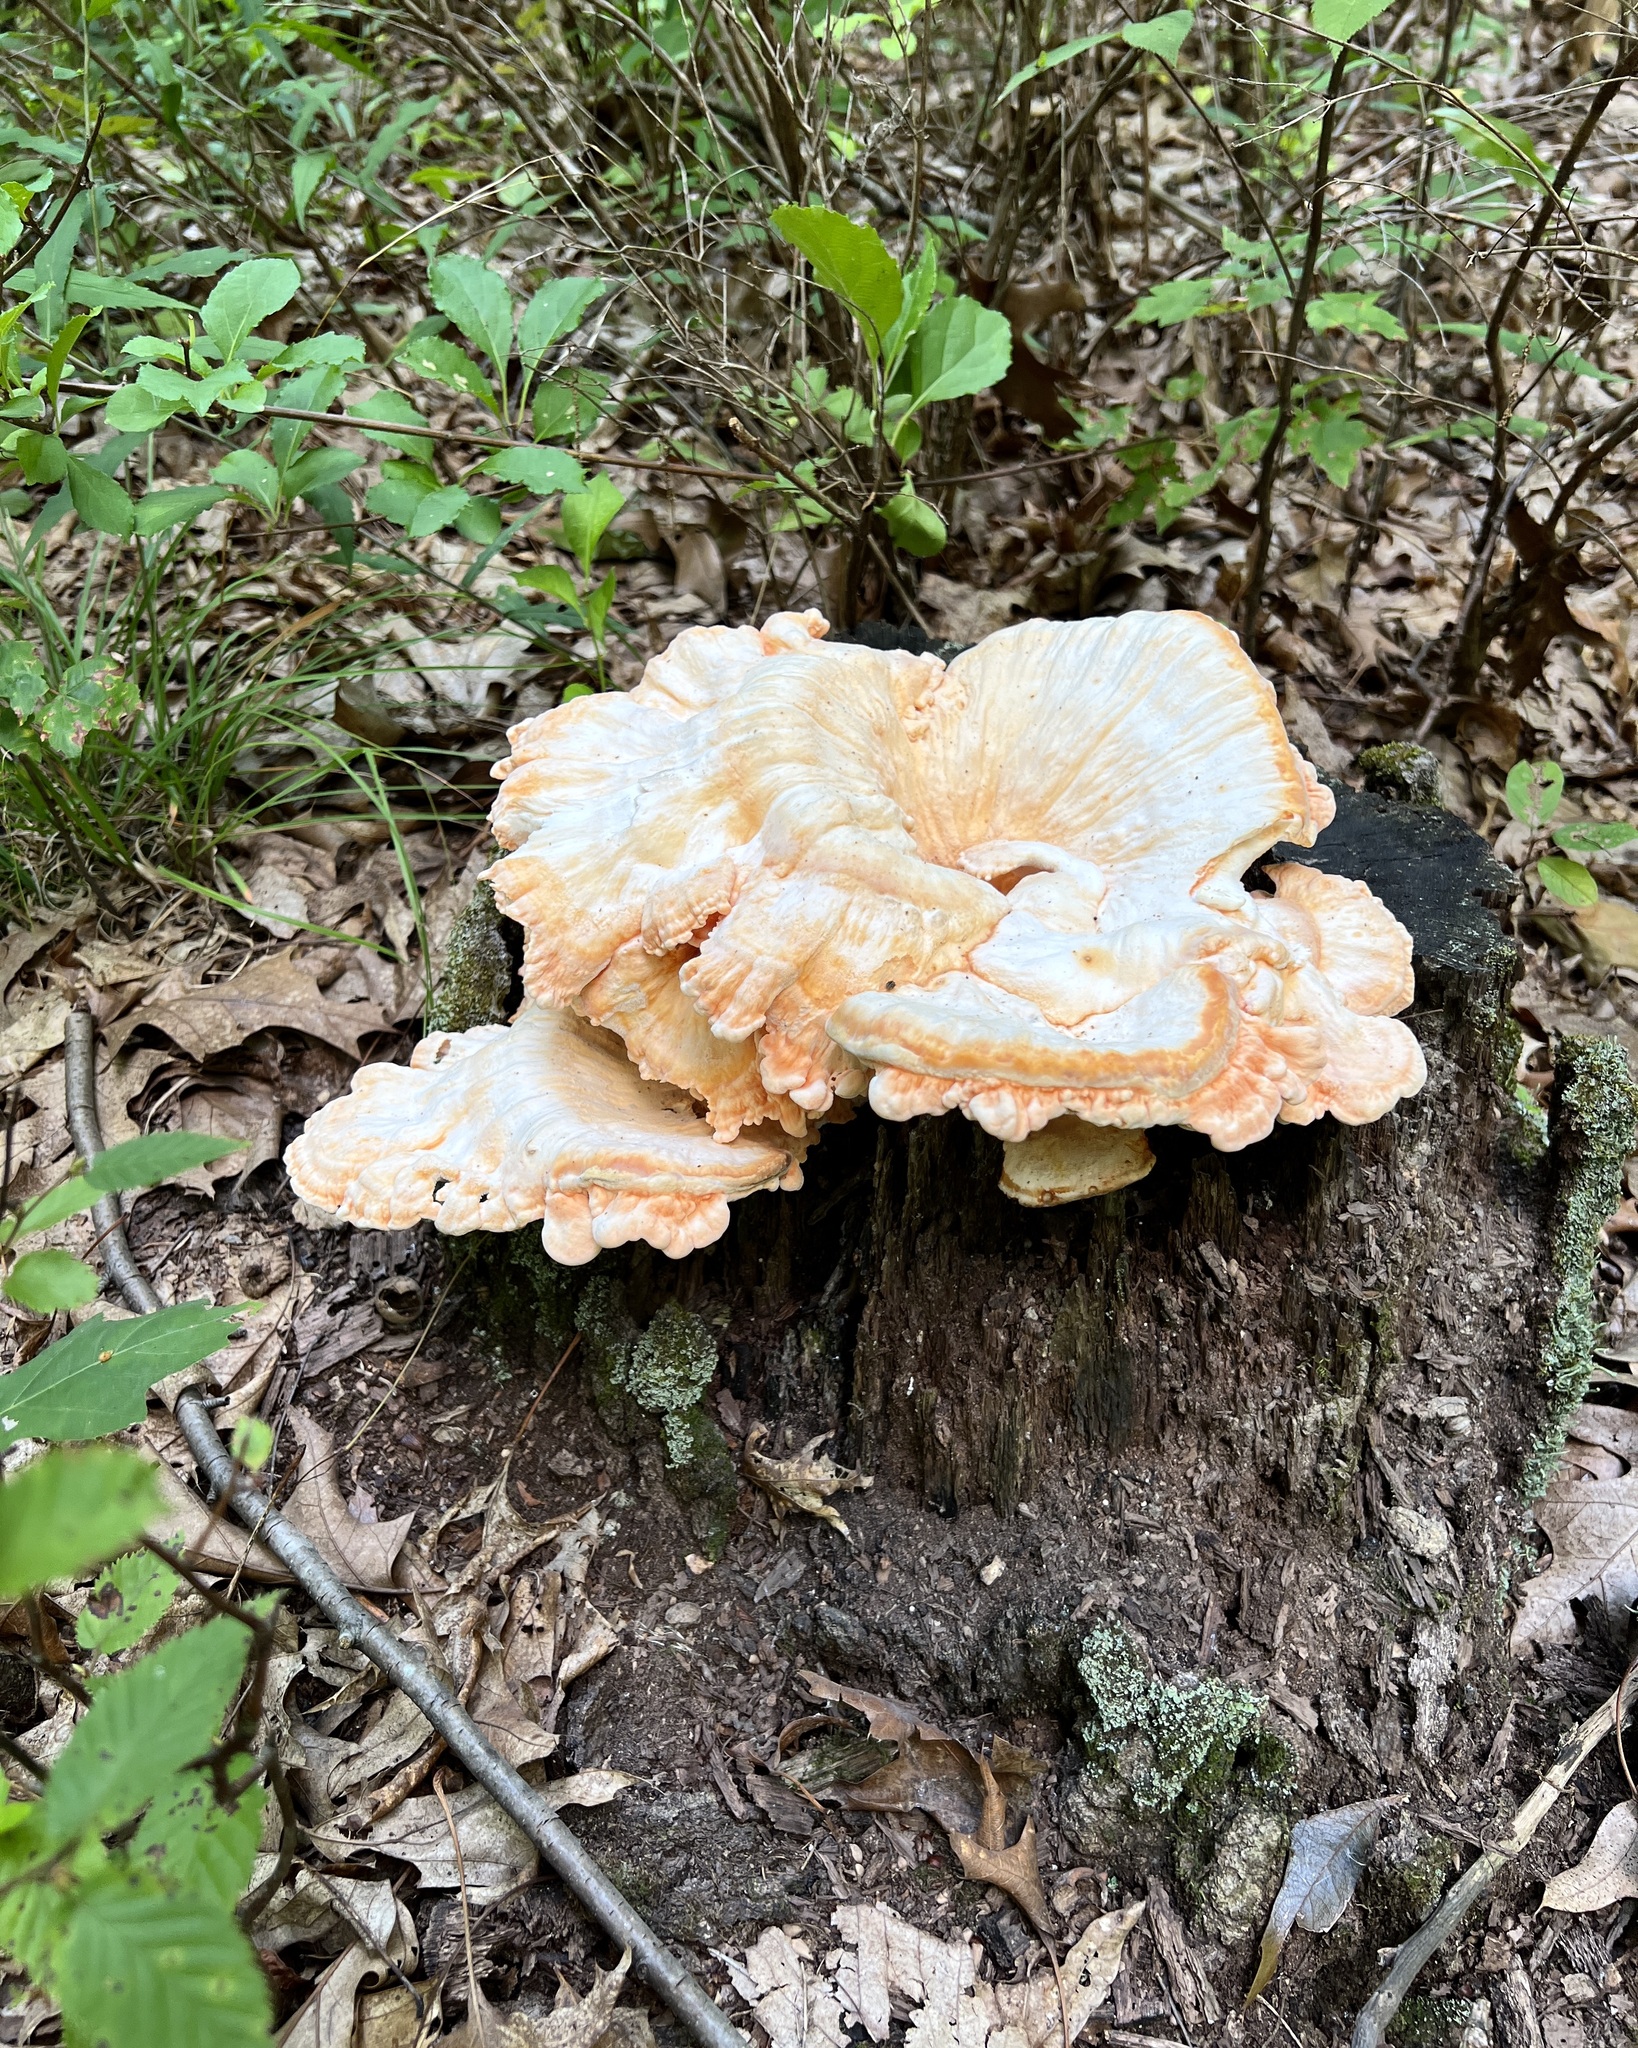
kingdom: Fungi
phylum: Basidiomycota
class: Agaricomycetes
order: Polyporales
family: Laetiporaceae
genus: Laetiporus
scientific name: Laetiporus sulphureus
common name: Chicken of the woods
